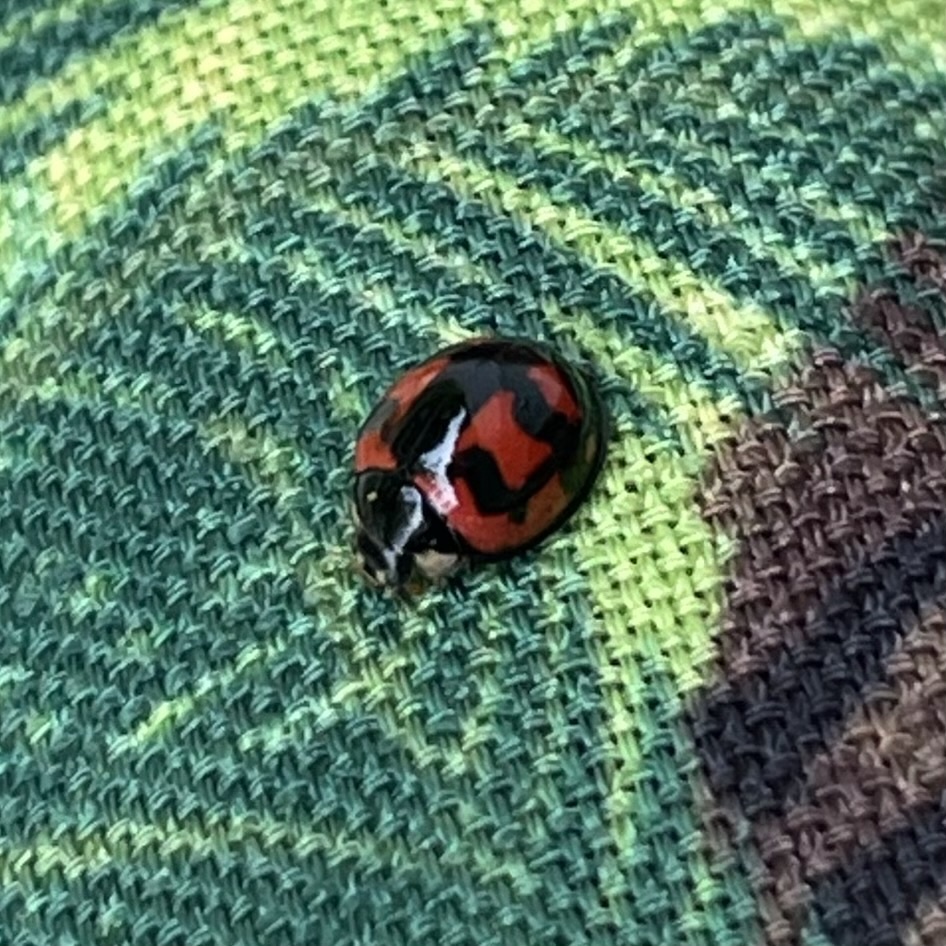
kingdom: Animalia
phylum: Arthropoda
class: Insecta
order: Coleoptera
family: Coccinellidae
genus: Cheilomenes
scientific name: Cheilomenes sexmaculata
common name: Ladybird beetle
